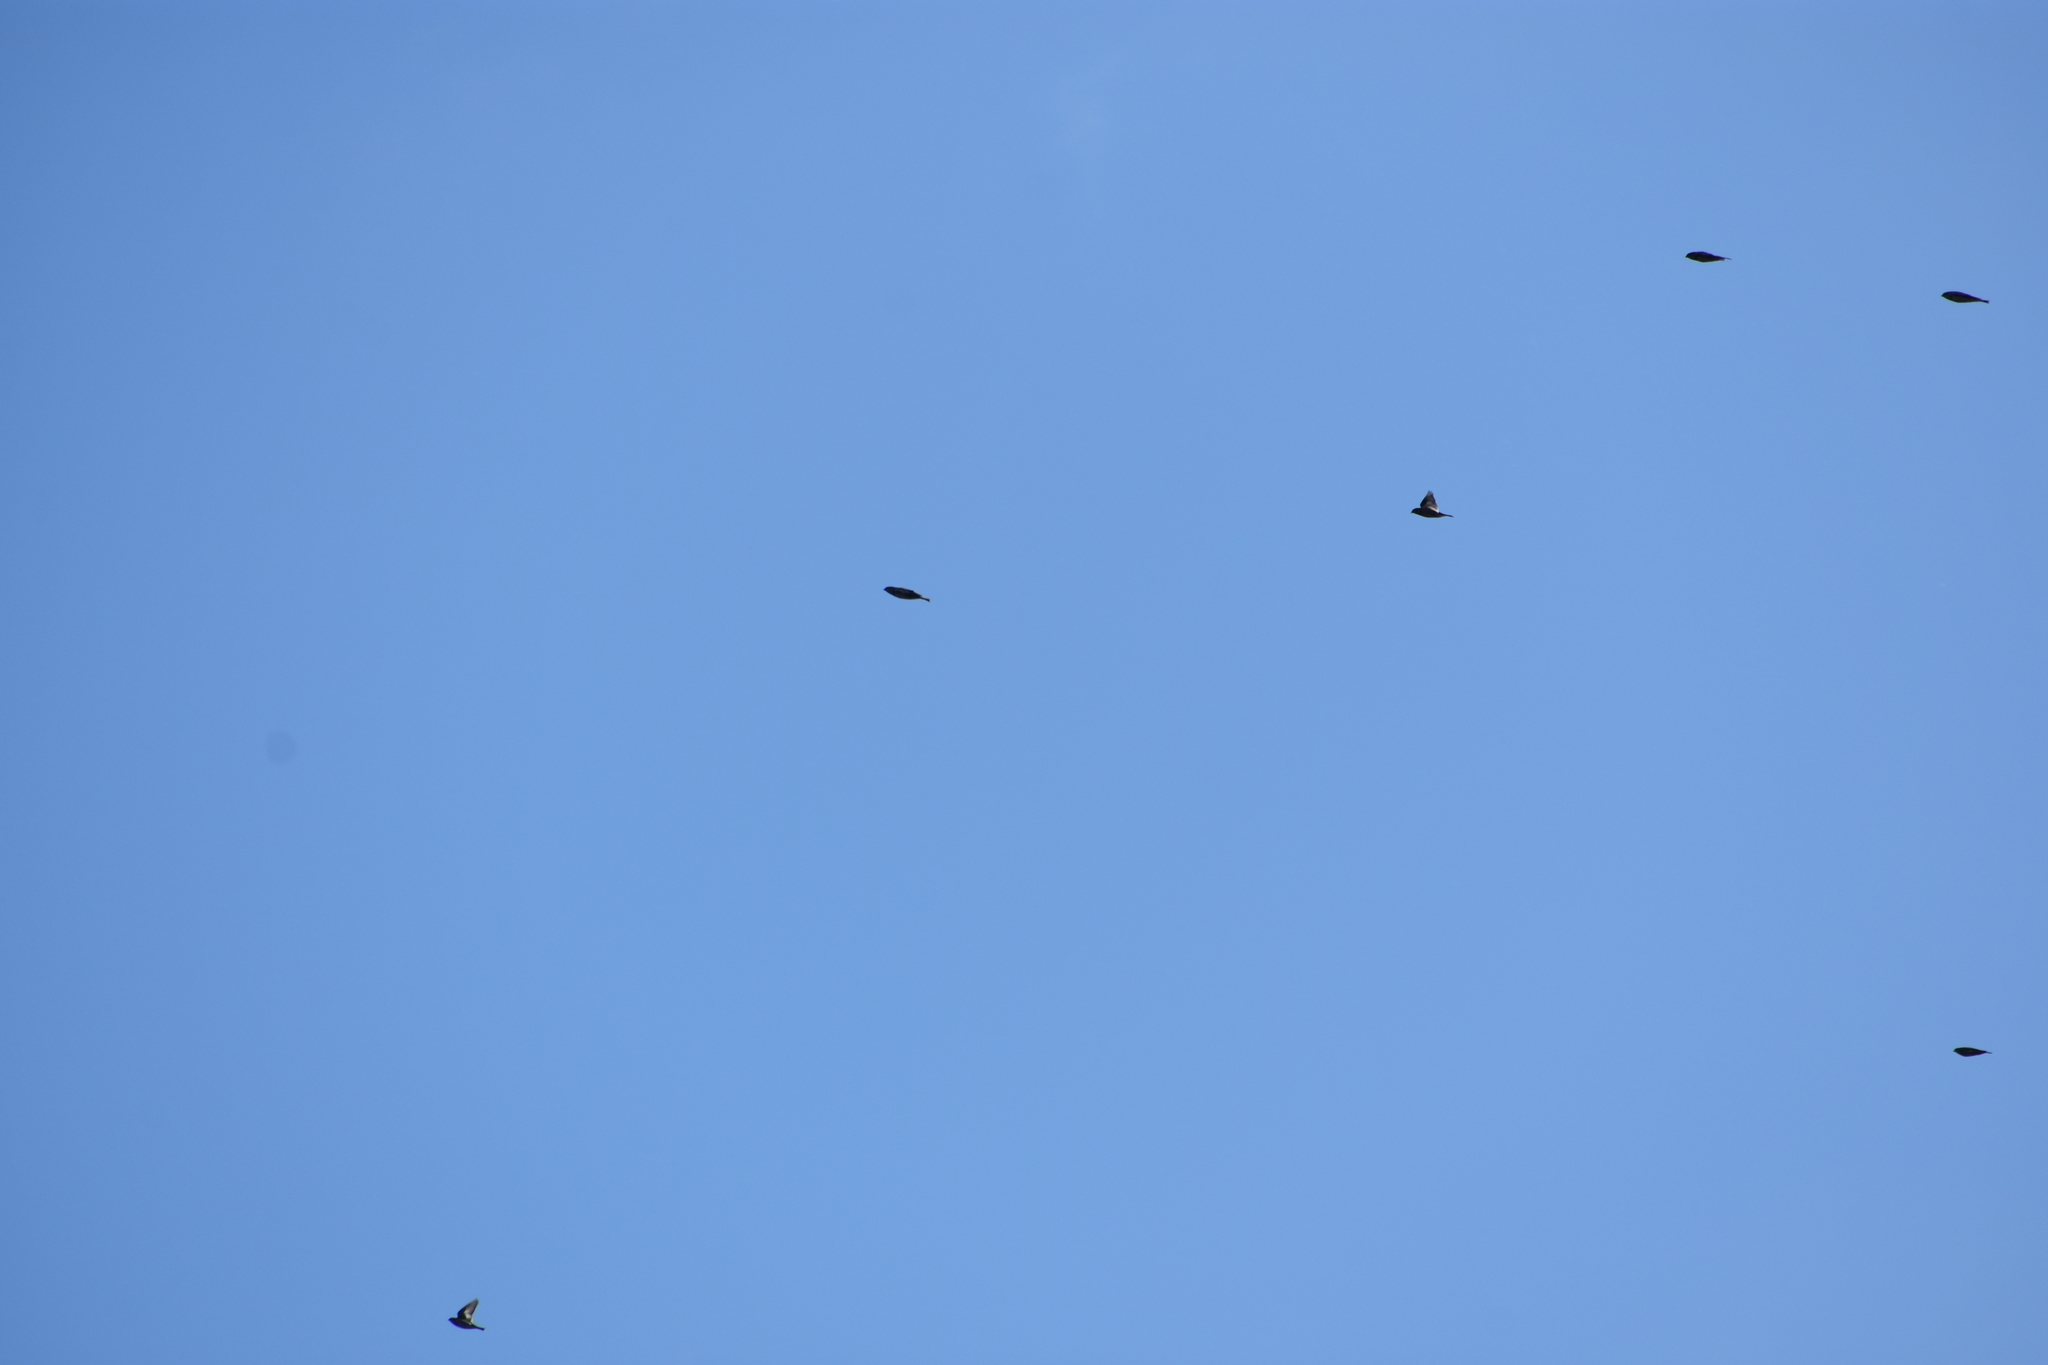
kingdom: Animalia
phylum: Chordata
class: Aves
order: Passeriformes
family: Calcariidae
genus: Plectrophenax
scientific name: Plectrophenax nivalis
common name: Snow bunting
